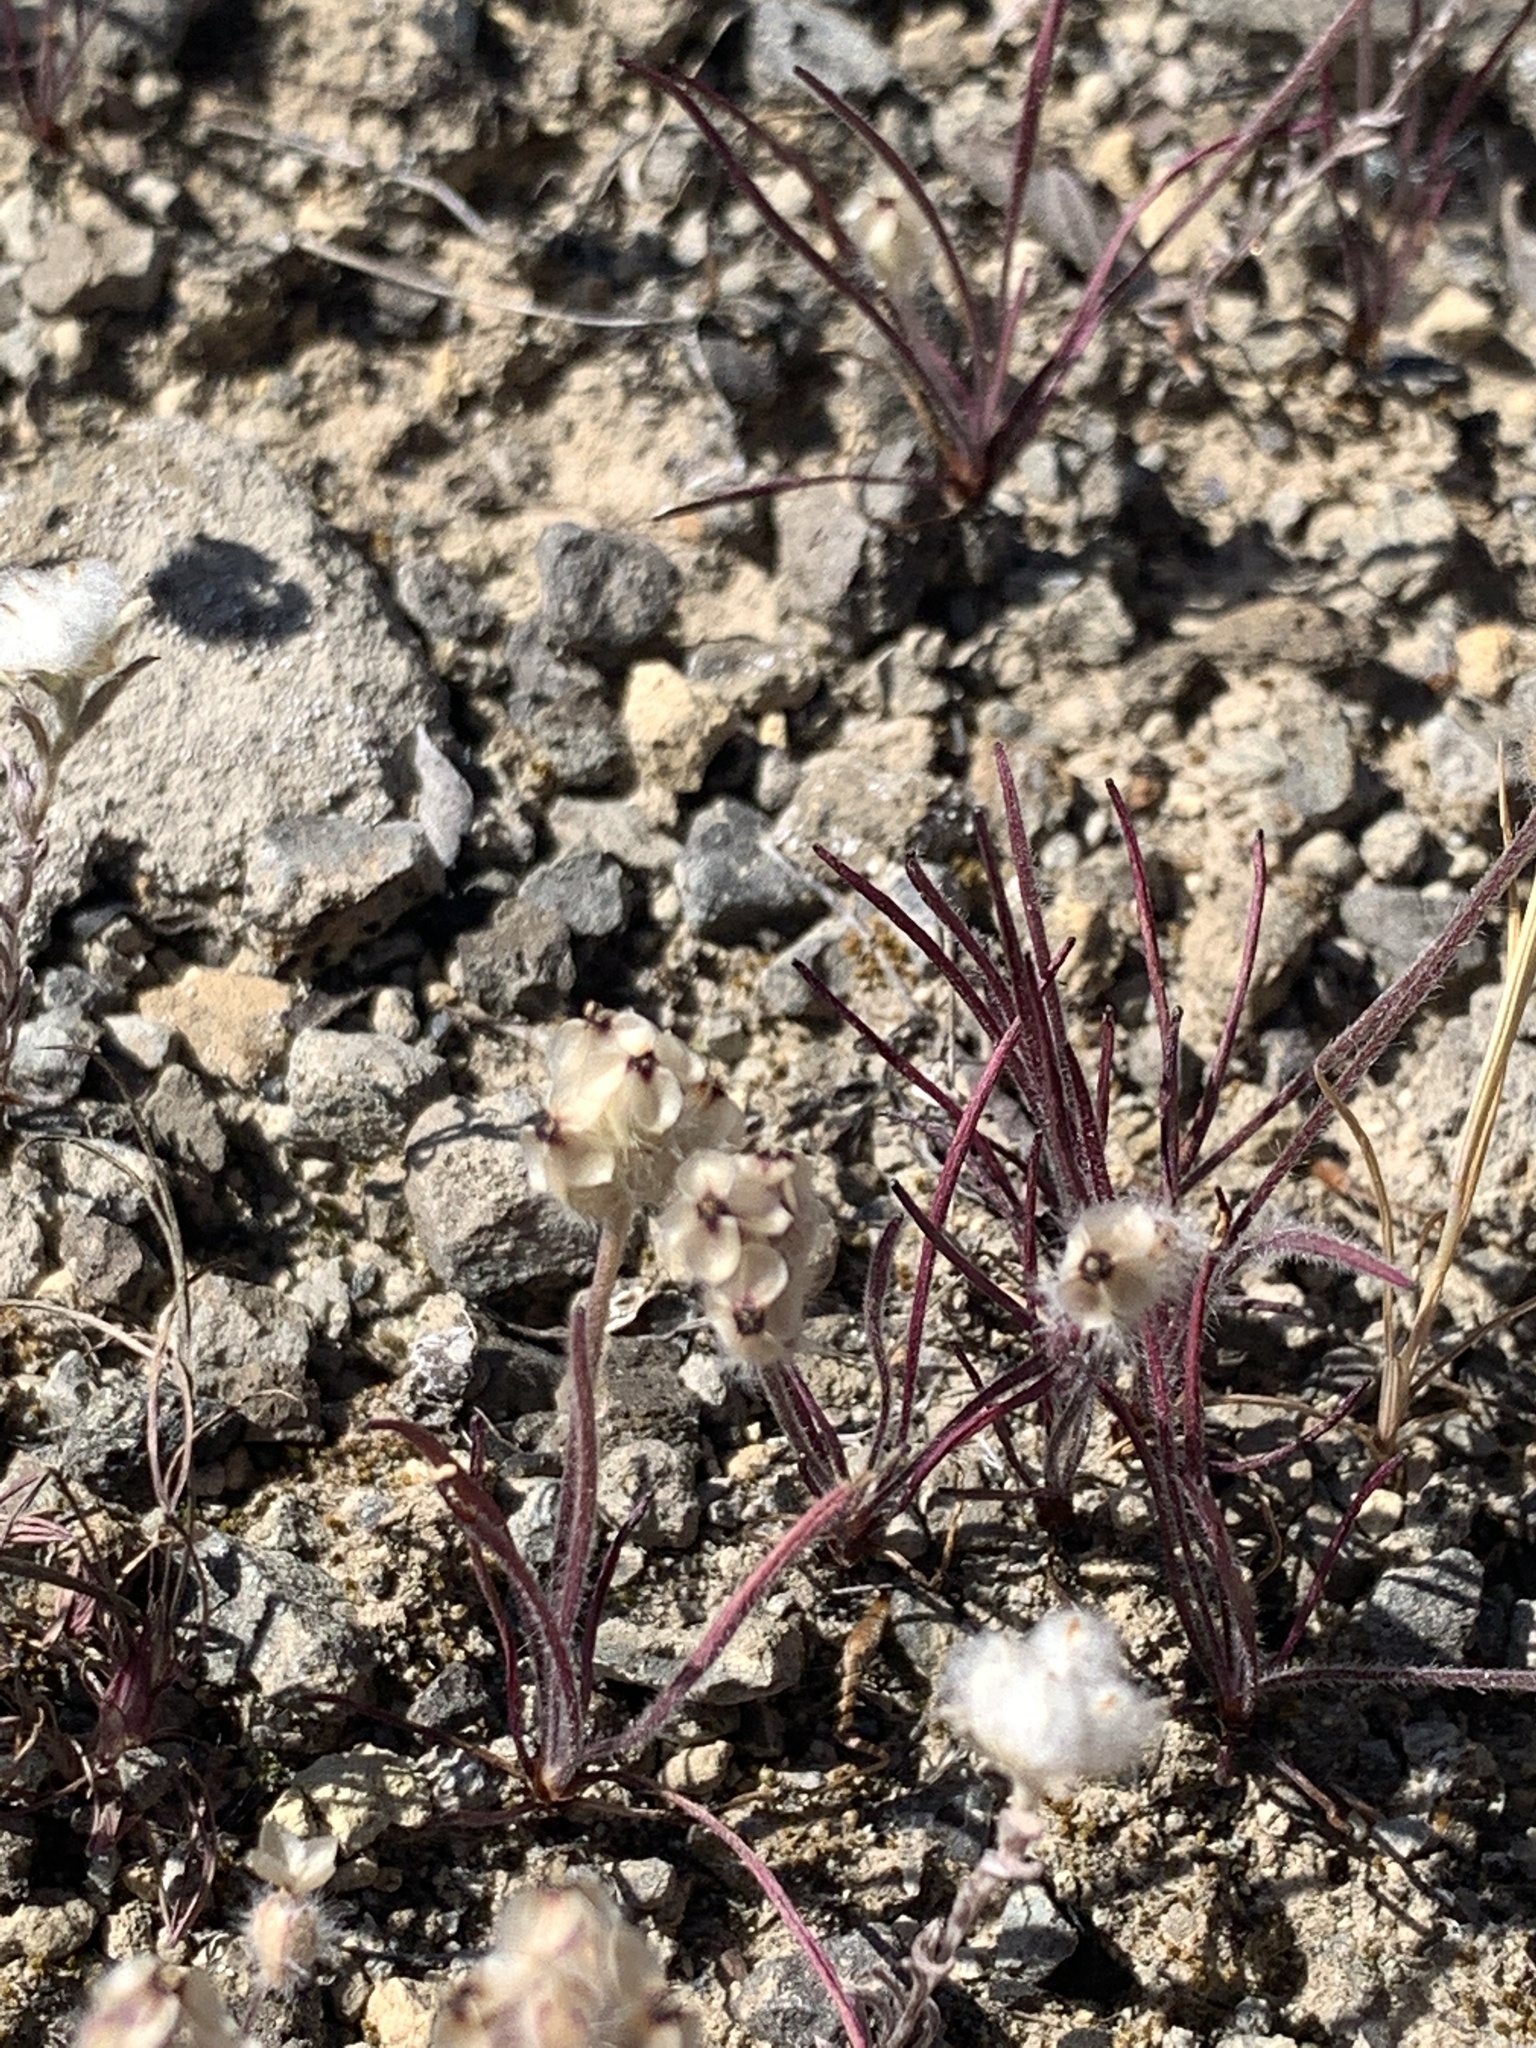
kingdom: Plantae
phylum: Tracheophyta
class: Magnoliopsida
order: Lamiales
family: Plantaginaceae
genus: Plantago
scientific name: Plantago erecta
